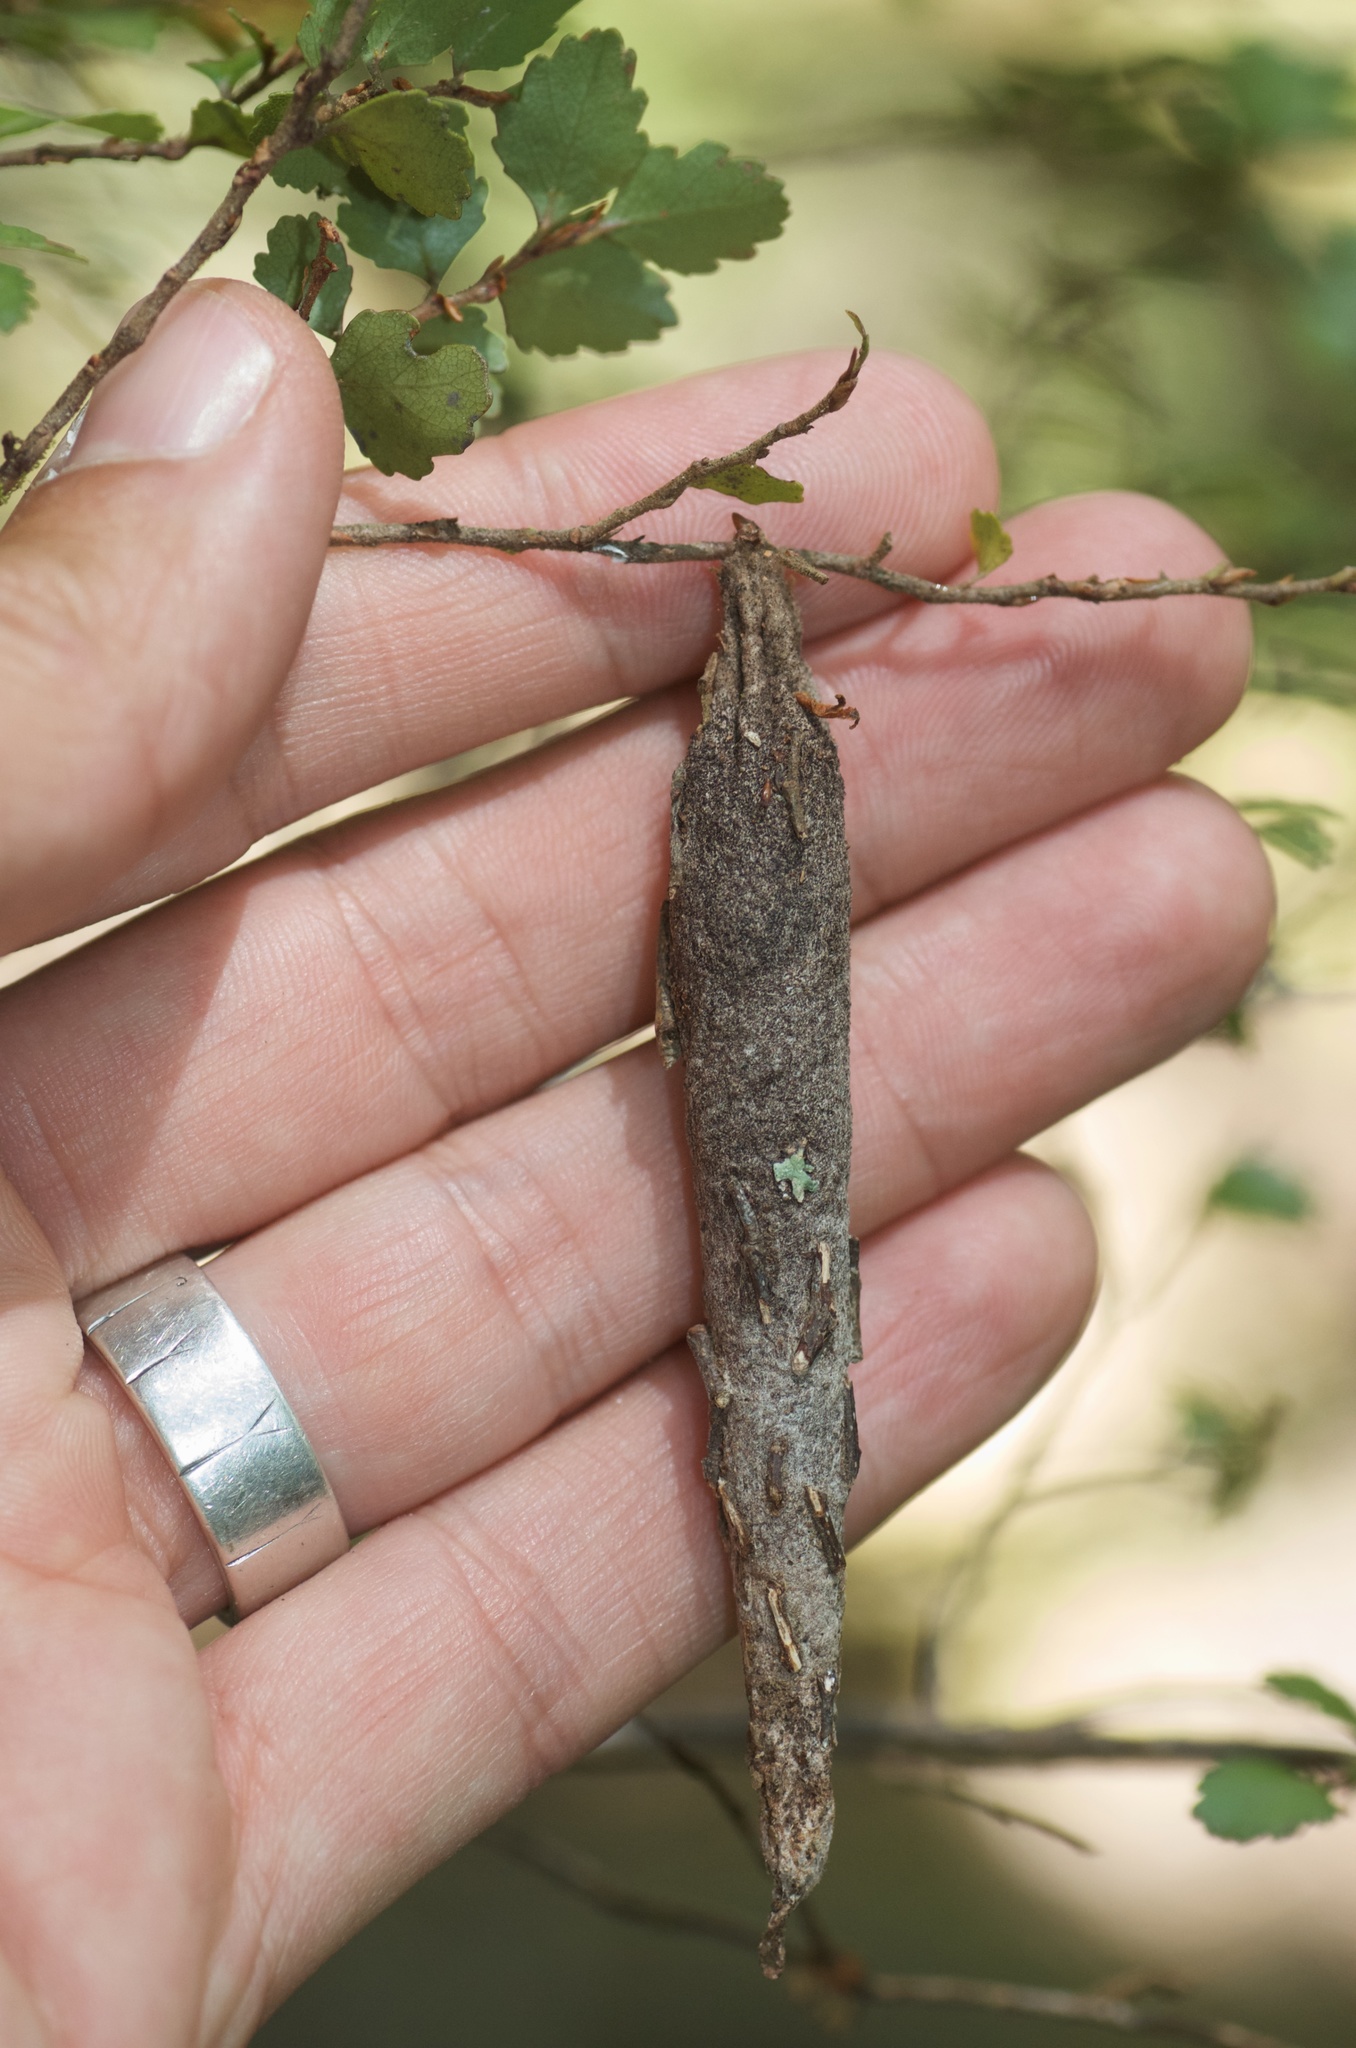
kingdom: Animalia
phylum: Arthropoda
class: Insecta
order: Lepidoptera
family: Psychidae
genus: Liothula
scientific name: Liothula omnivora
